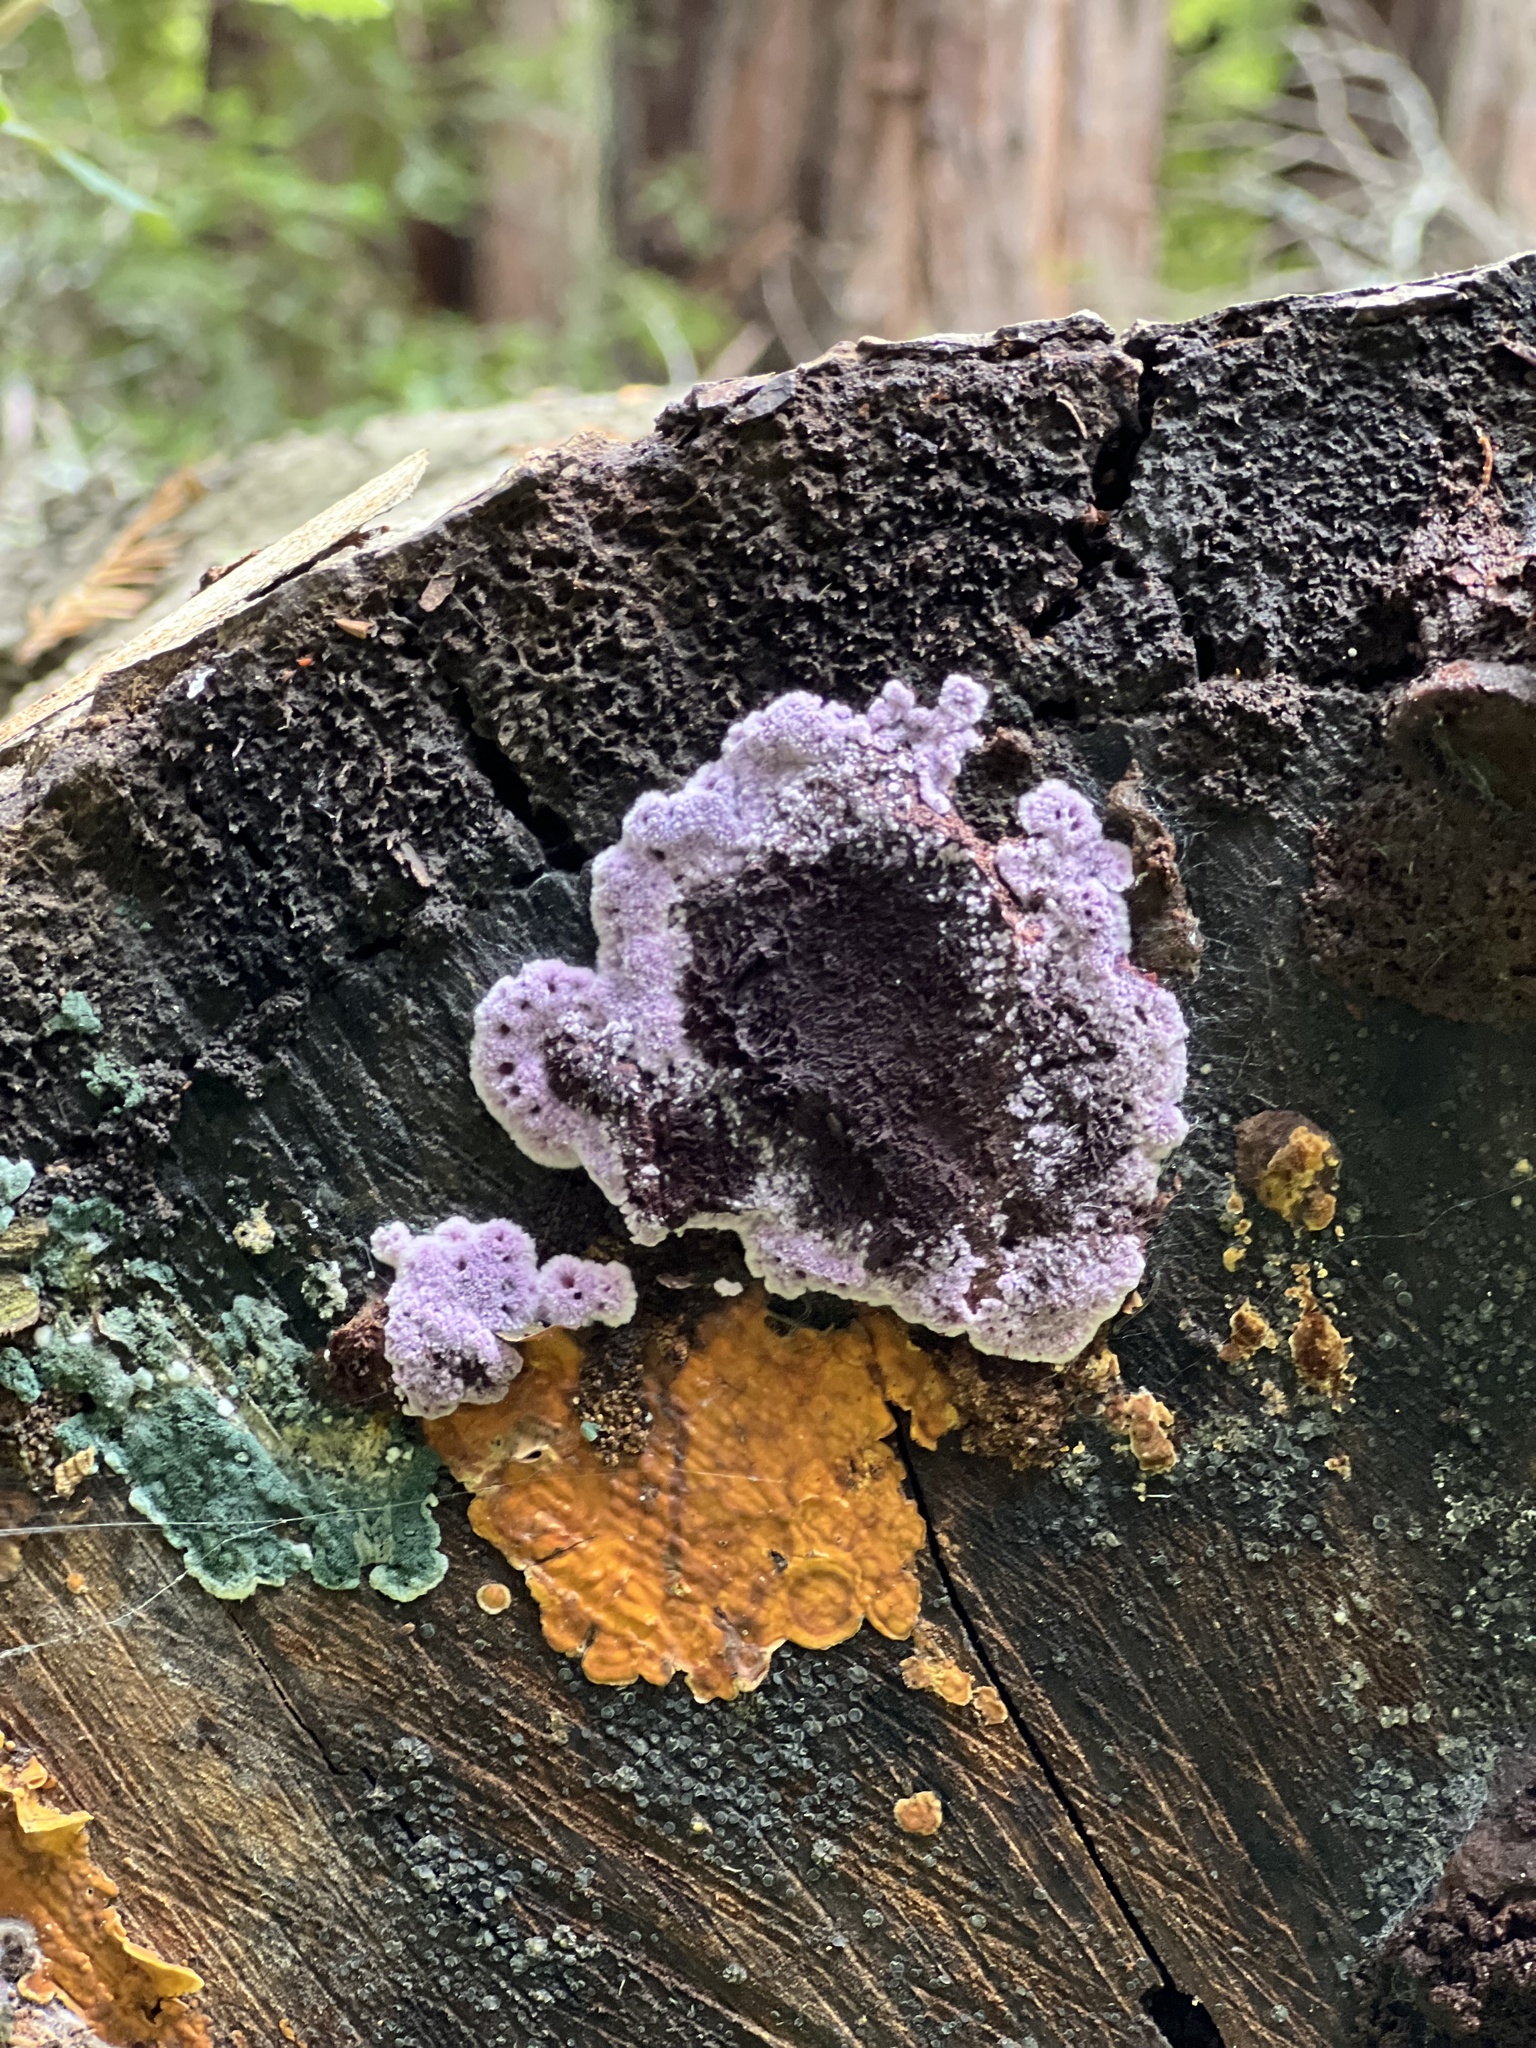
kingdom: Fungi
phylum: Basidiomycota
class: Agaricomycetes
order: Corticiales
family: Punctulariaceae
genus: Punctularia
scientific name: Punctularia atropurpurascens
